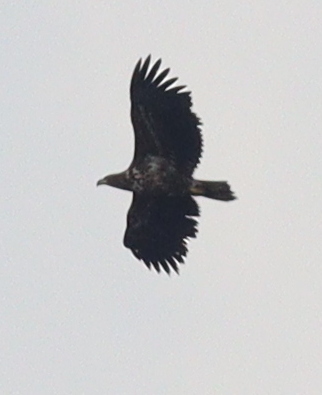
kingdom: Animalia
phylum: Chordata
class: Aves
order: Accipitriformes
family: Accipitridae
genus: Haliaeetus
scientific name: Haliaeetus albicilla
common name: White-tailed eagle
